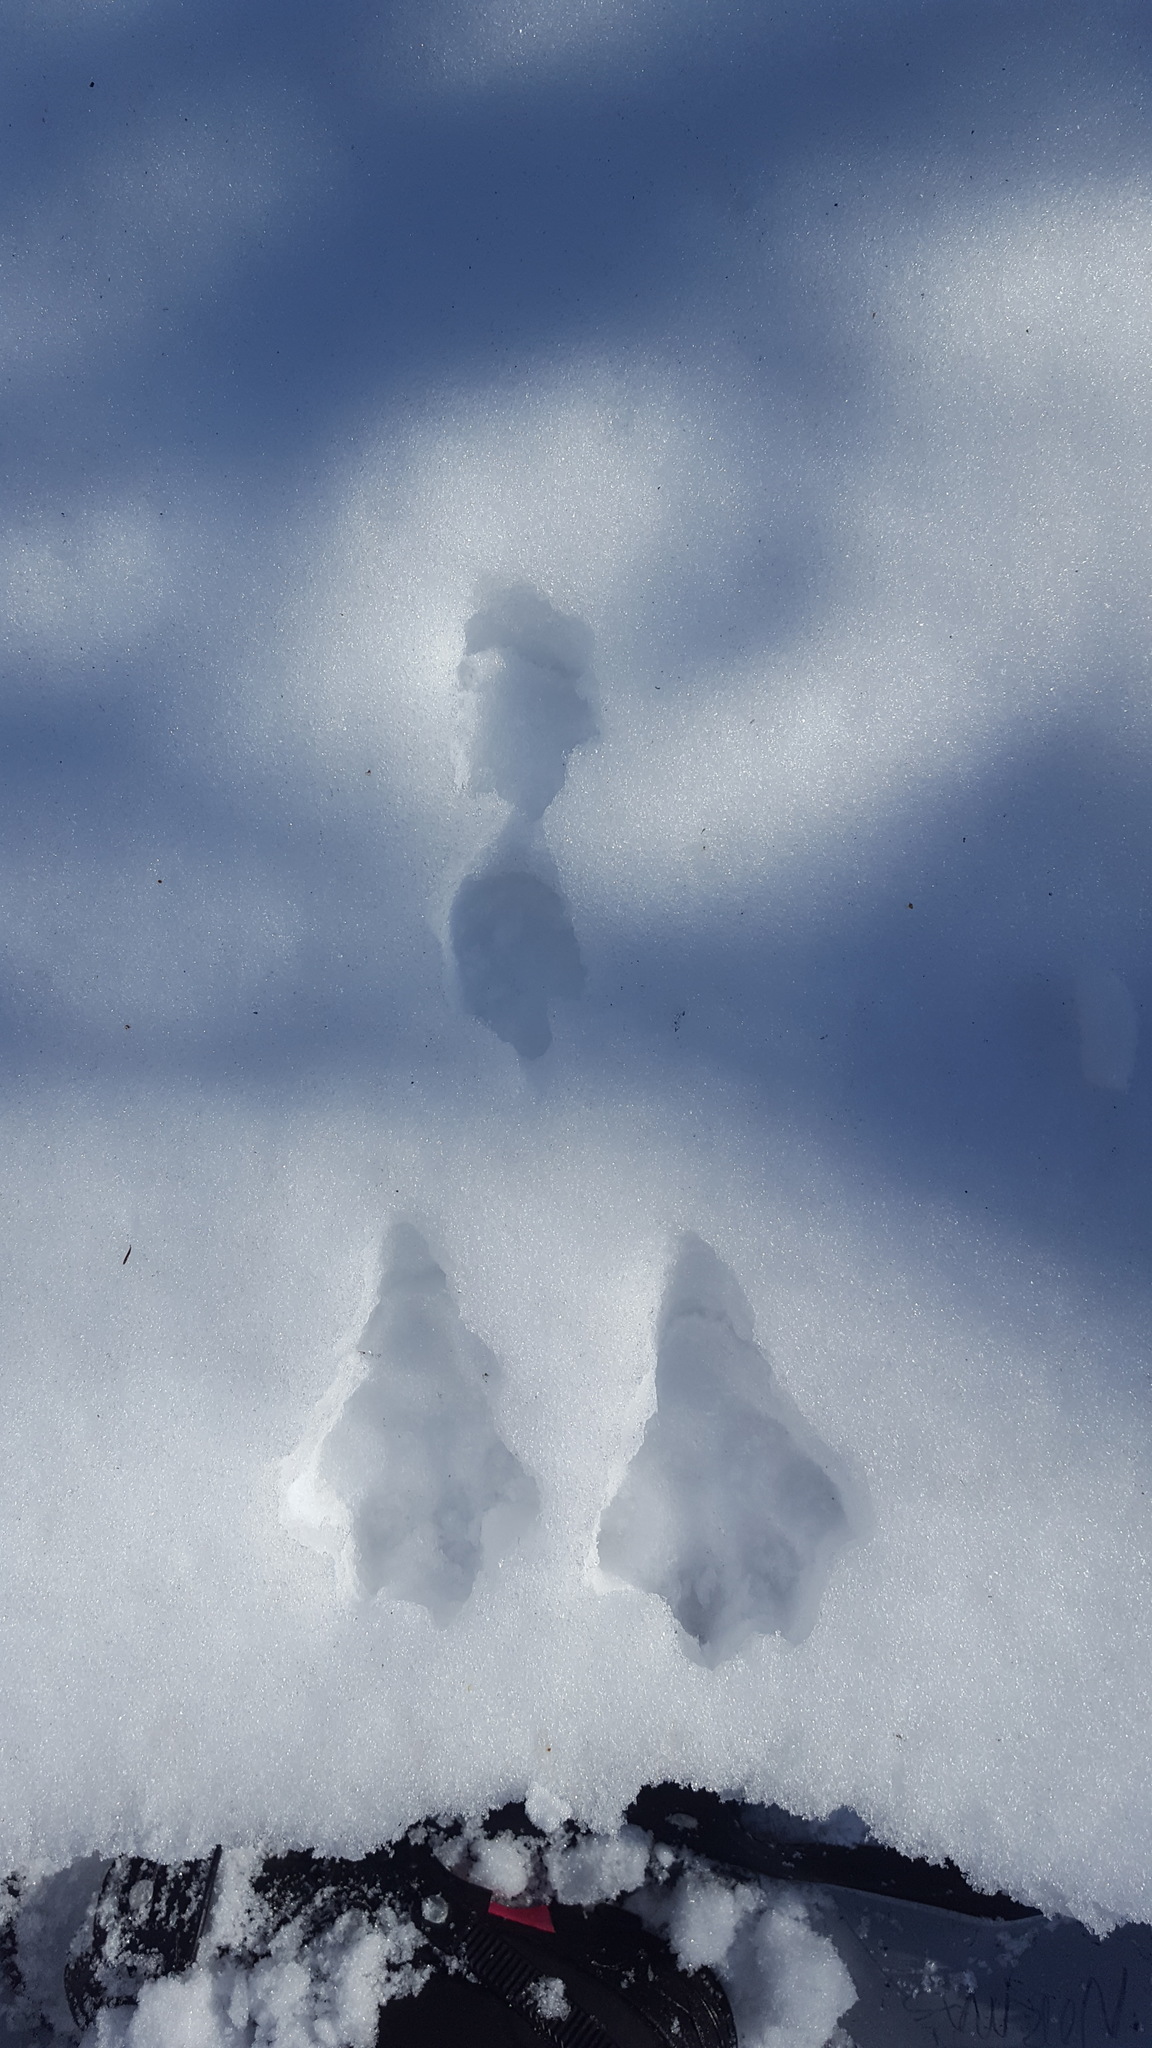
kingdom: Animalia
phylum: Chordata
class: Mammalia
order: Lagomorpha
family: Leporidae
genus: Lepus
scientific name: Lepus americanus
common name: Snowshoe hare
